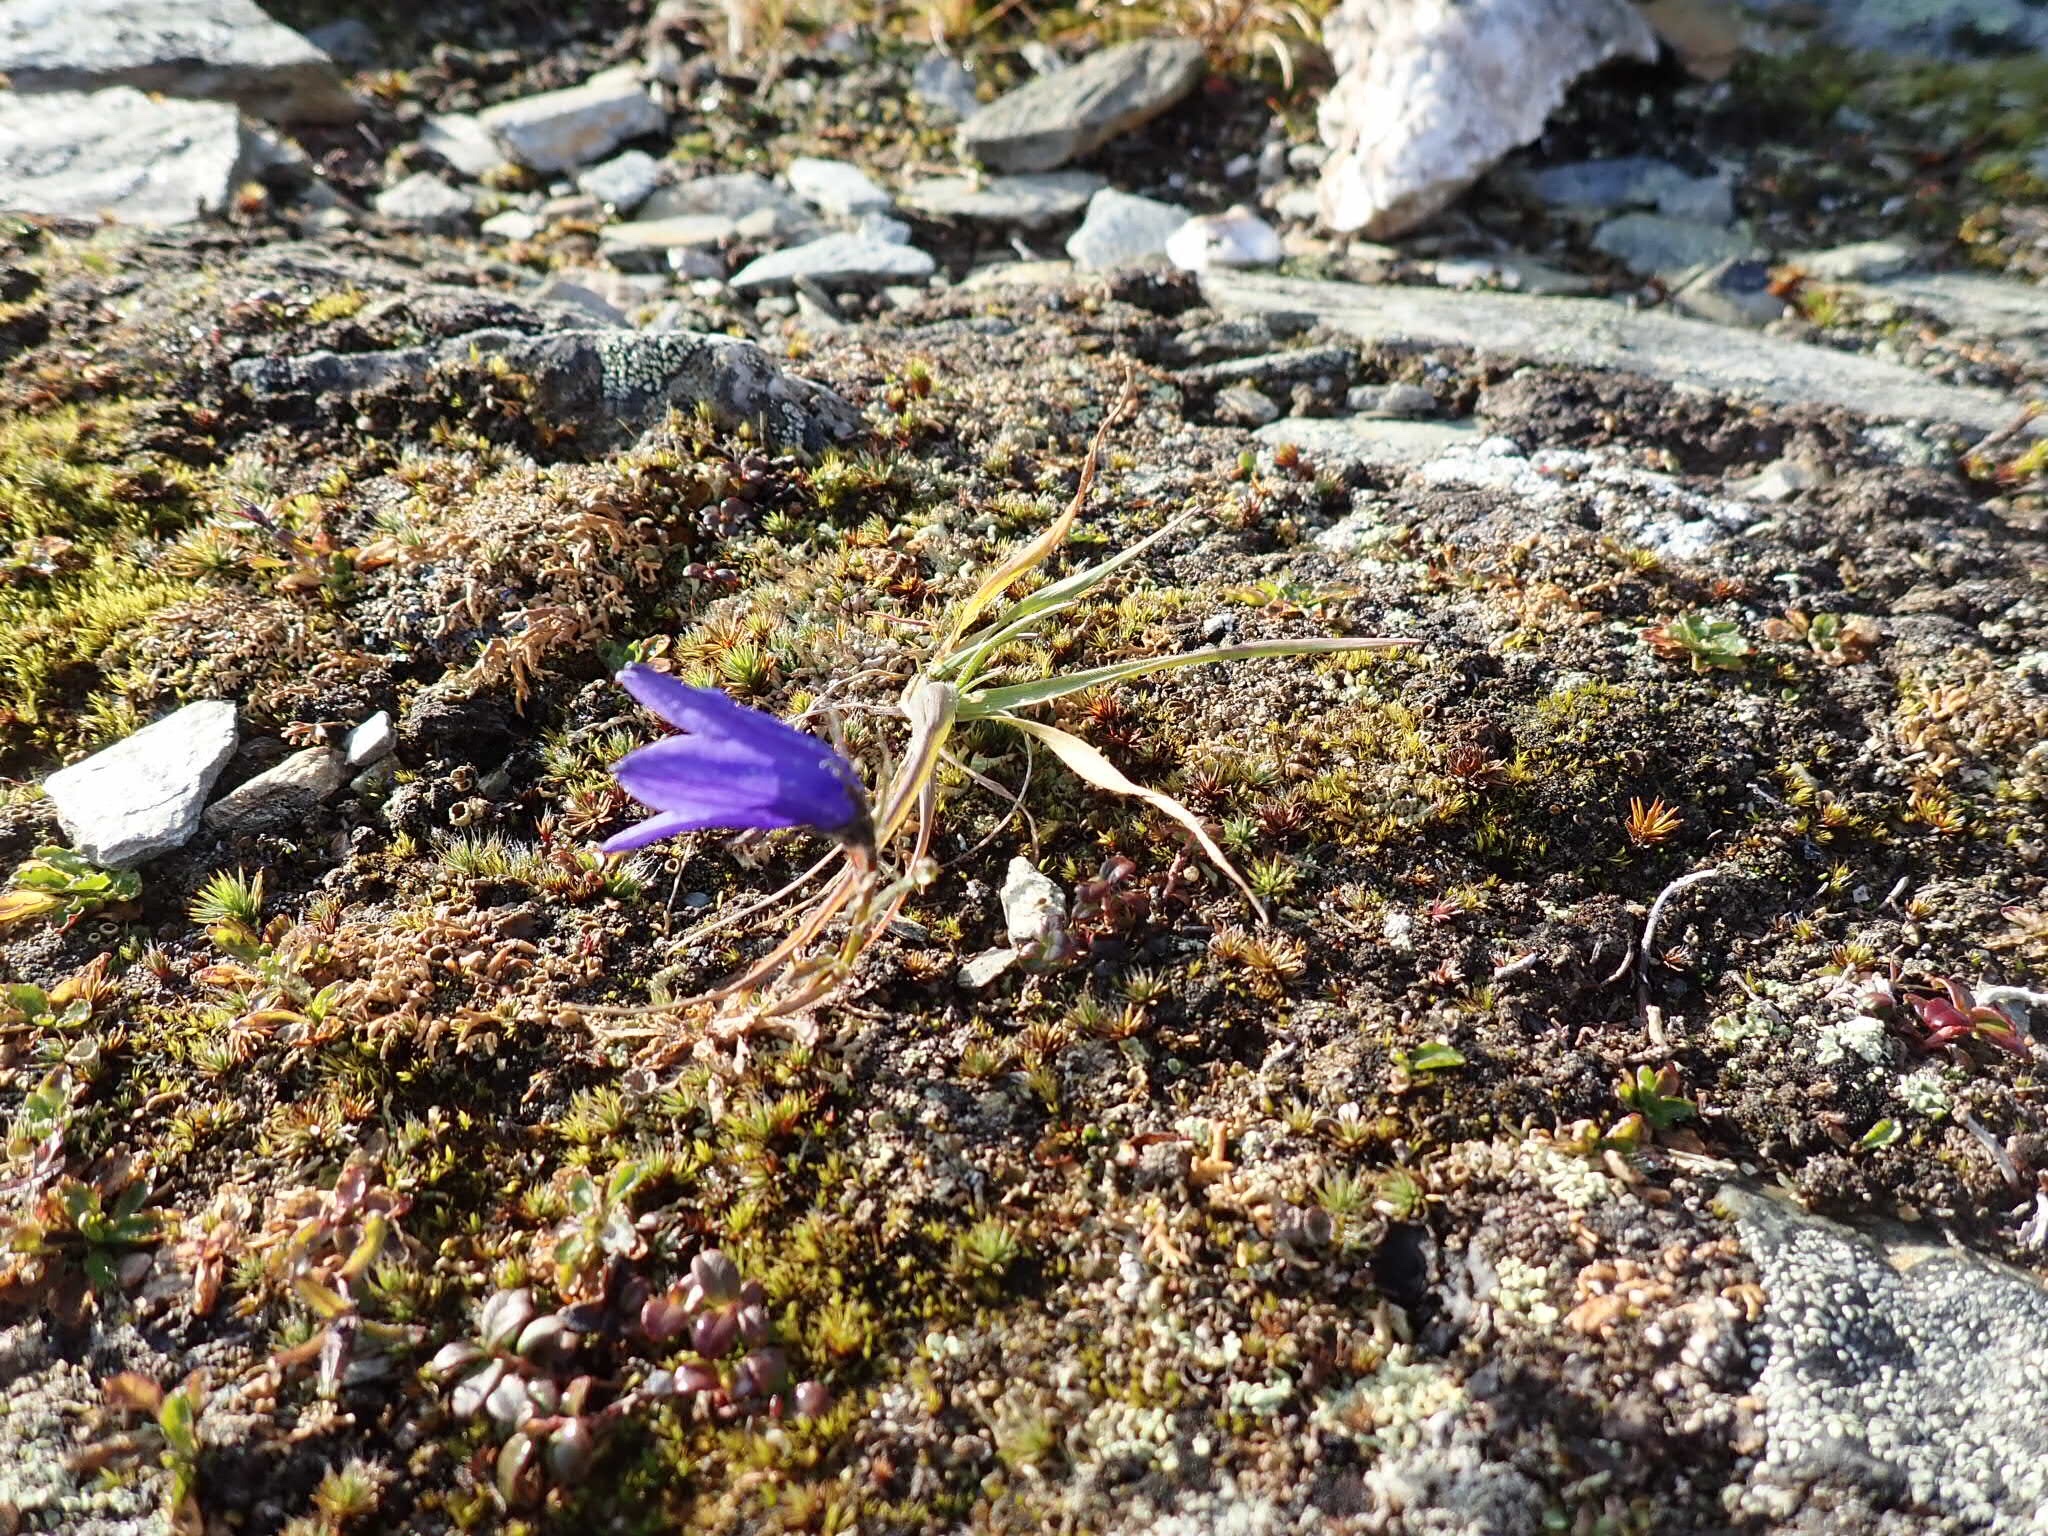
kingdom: Plantae
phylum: Tracheophyta
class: Magnoliopsida
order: Asterales
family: Campanulaceae
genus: Campanula
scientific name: Campanula lasiocarpa
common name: Mountain harebell
